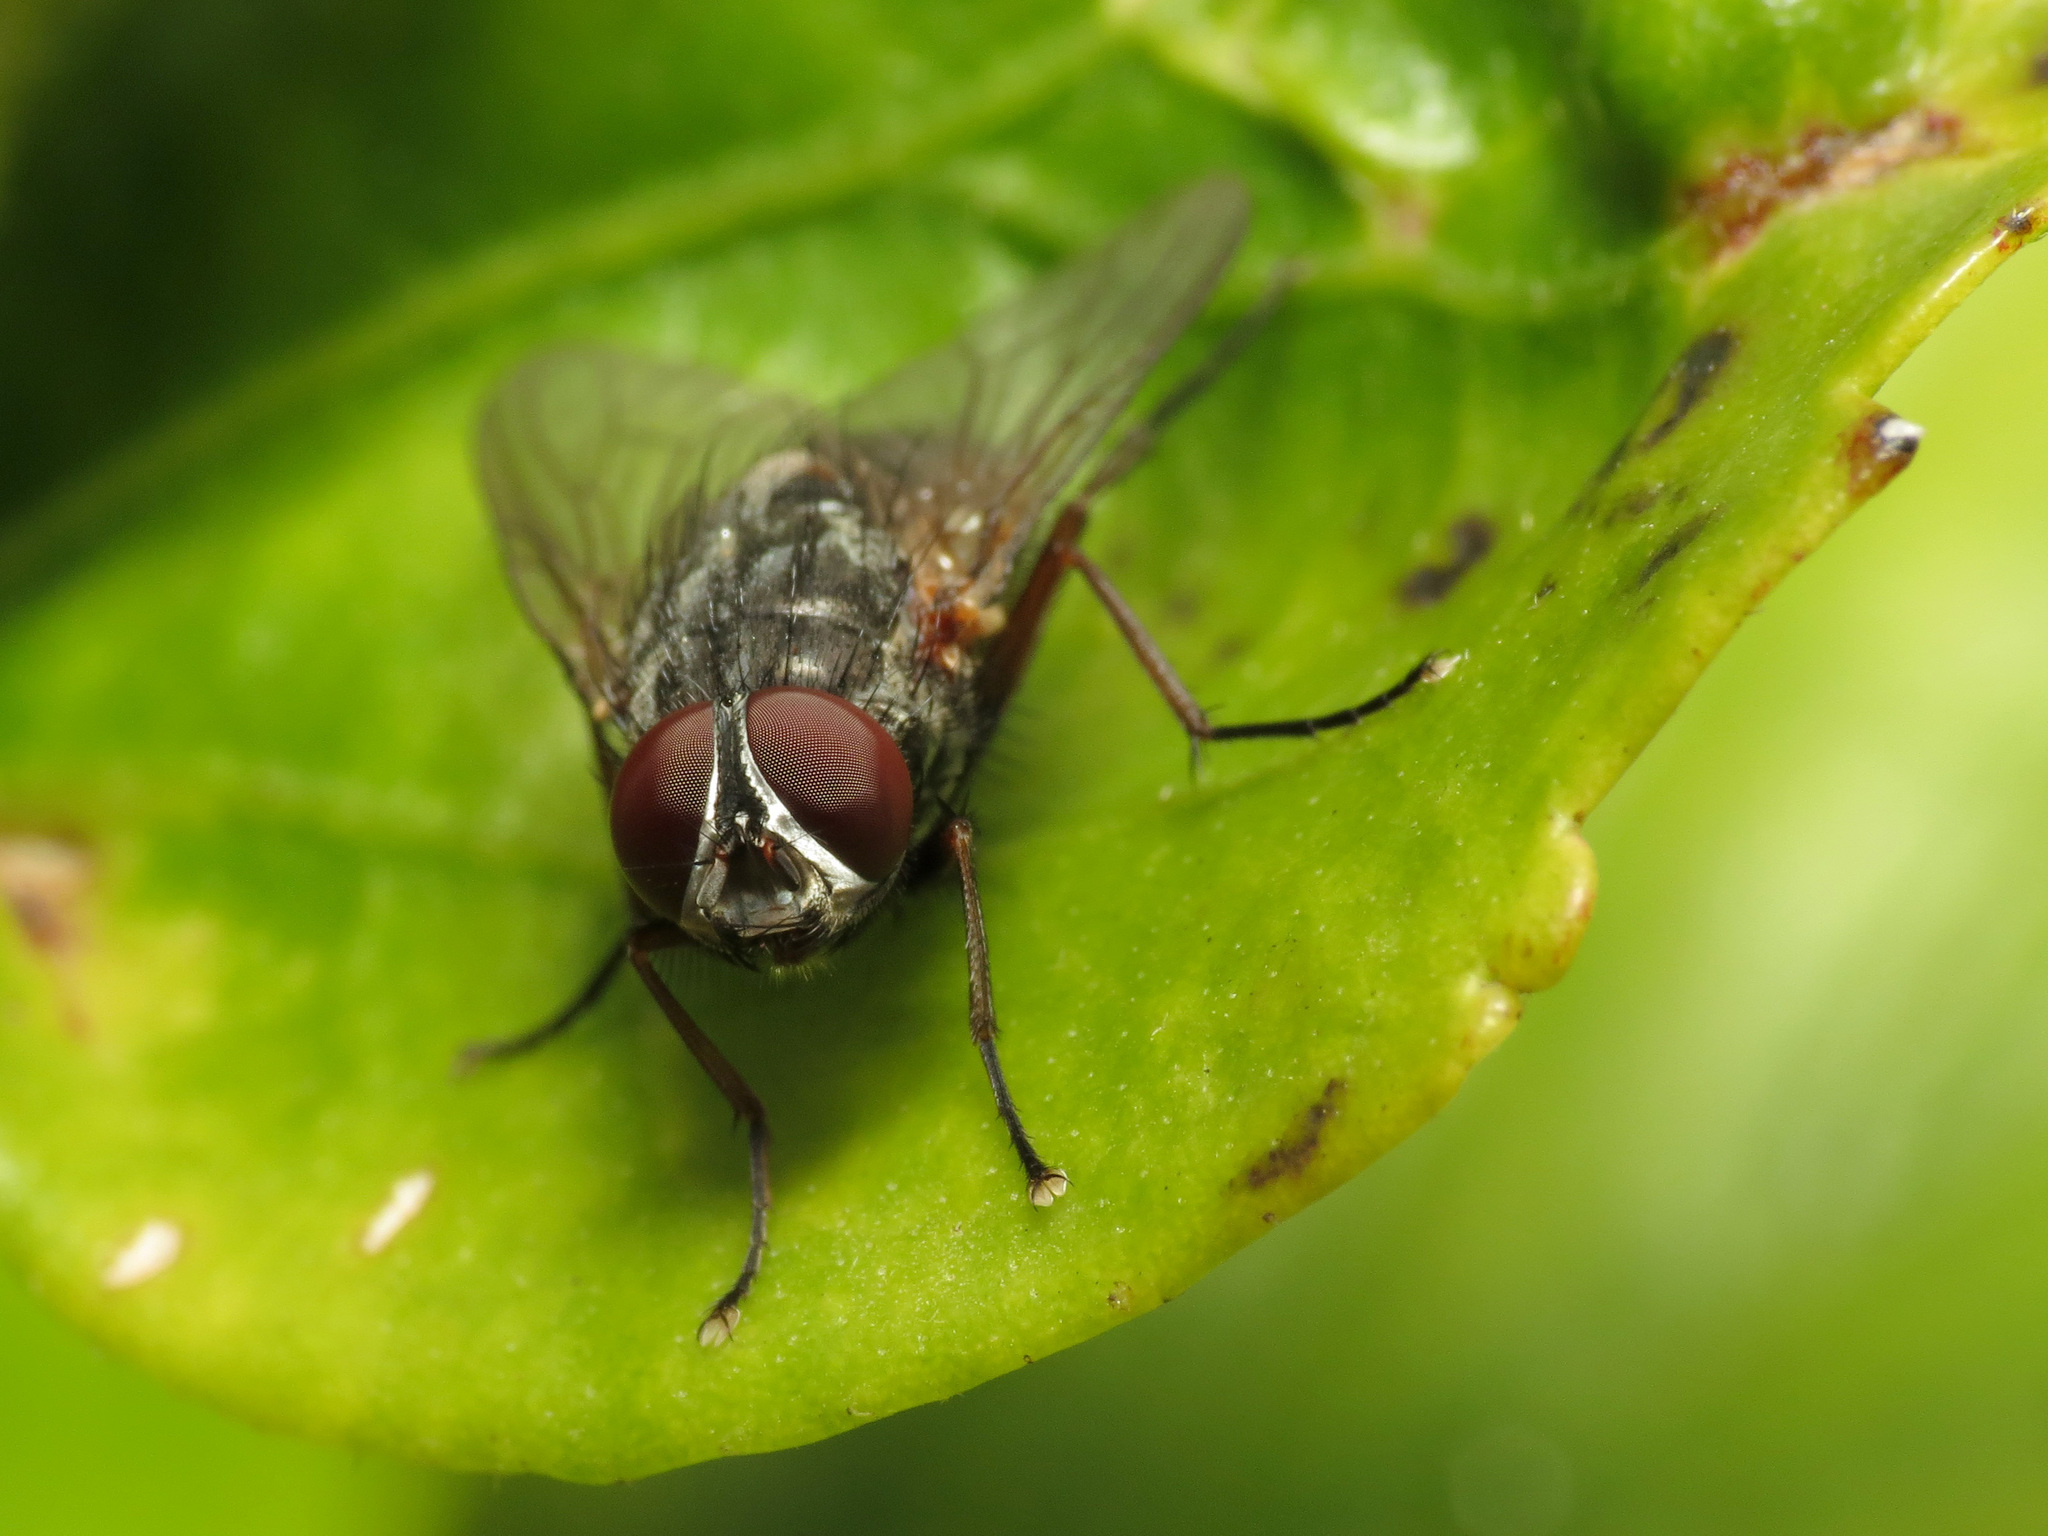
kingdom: Animalia
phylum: Arthropoda
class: Insecta
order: Diptera
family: Muscidae
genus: Muscina
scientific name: Muscina stabulans
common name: False stable fly
